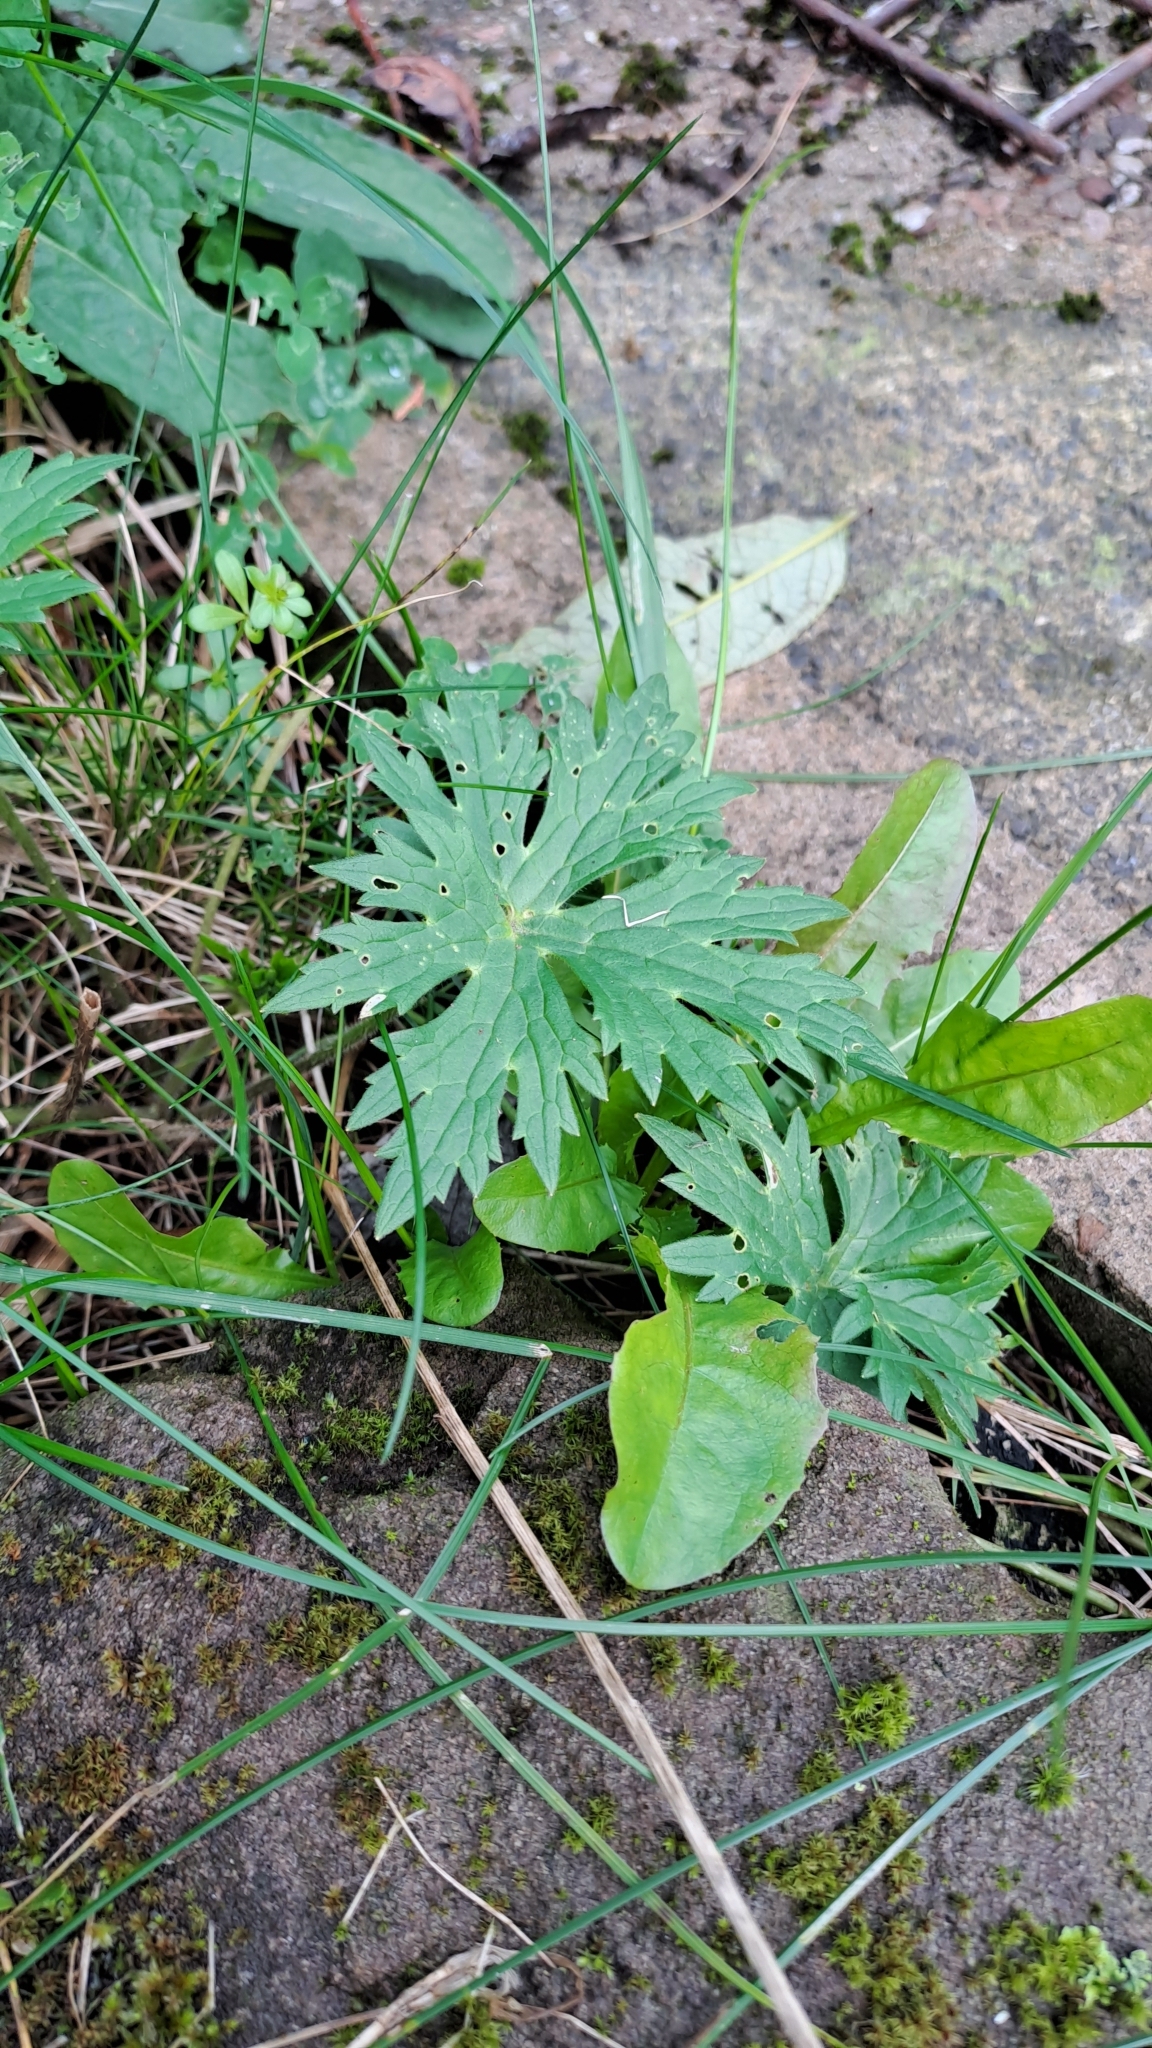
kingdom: Plantae
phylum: Tracheophyta
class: Magnoliopsida
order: Ranunculales
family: Ranunculaceae
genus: Ranunculus
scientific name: Ranunculus acris
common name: Meadow buttercup
